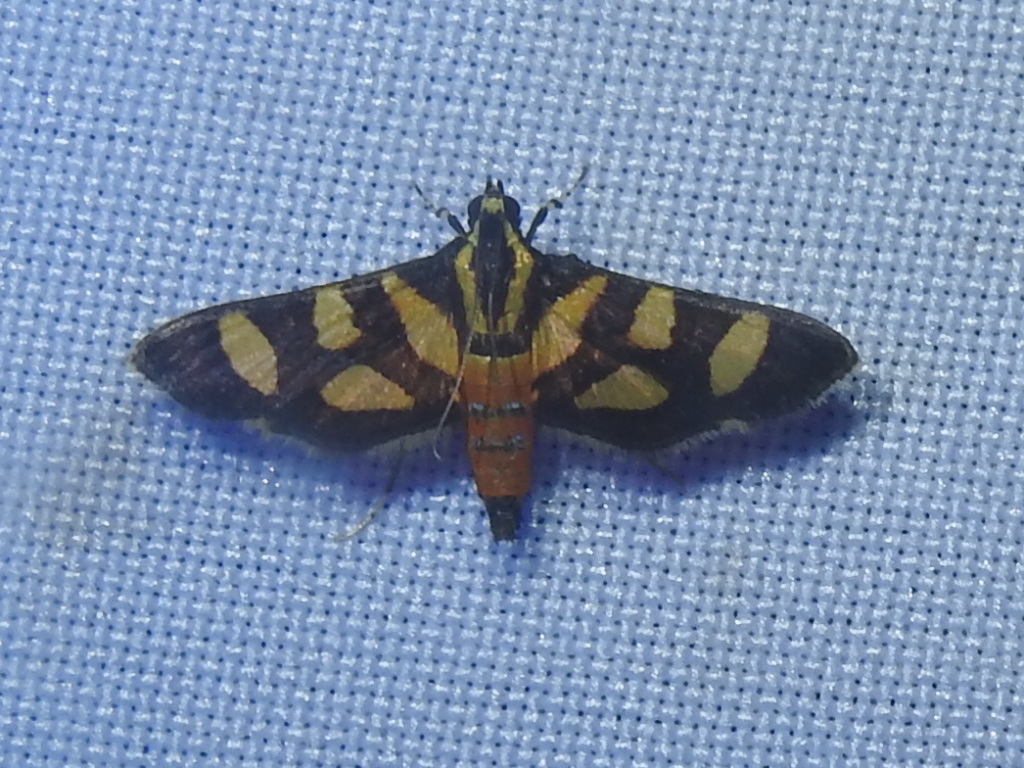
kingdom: Animalia
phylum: Arthropoda
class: Insecta
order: Lepidoptera
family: Crambidae
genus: Syngamia
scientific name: Syngamia florella
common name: Orange-spotted flower moth
